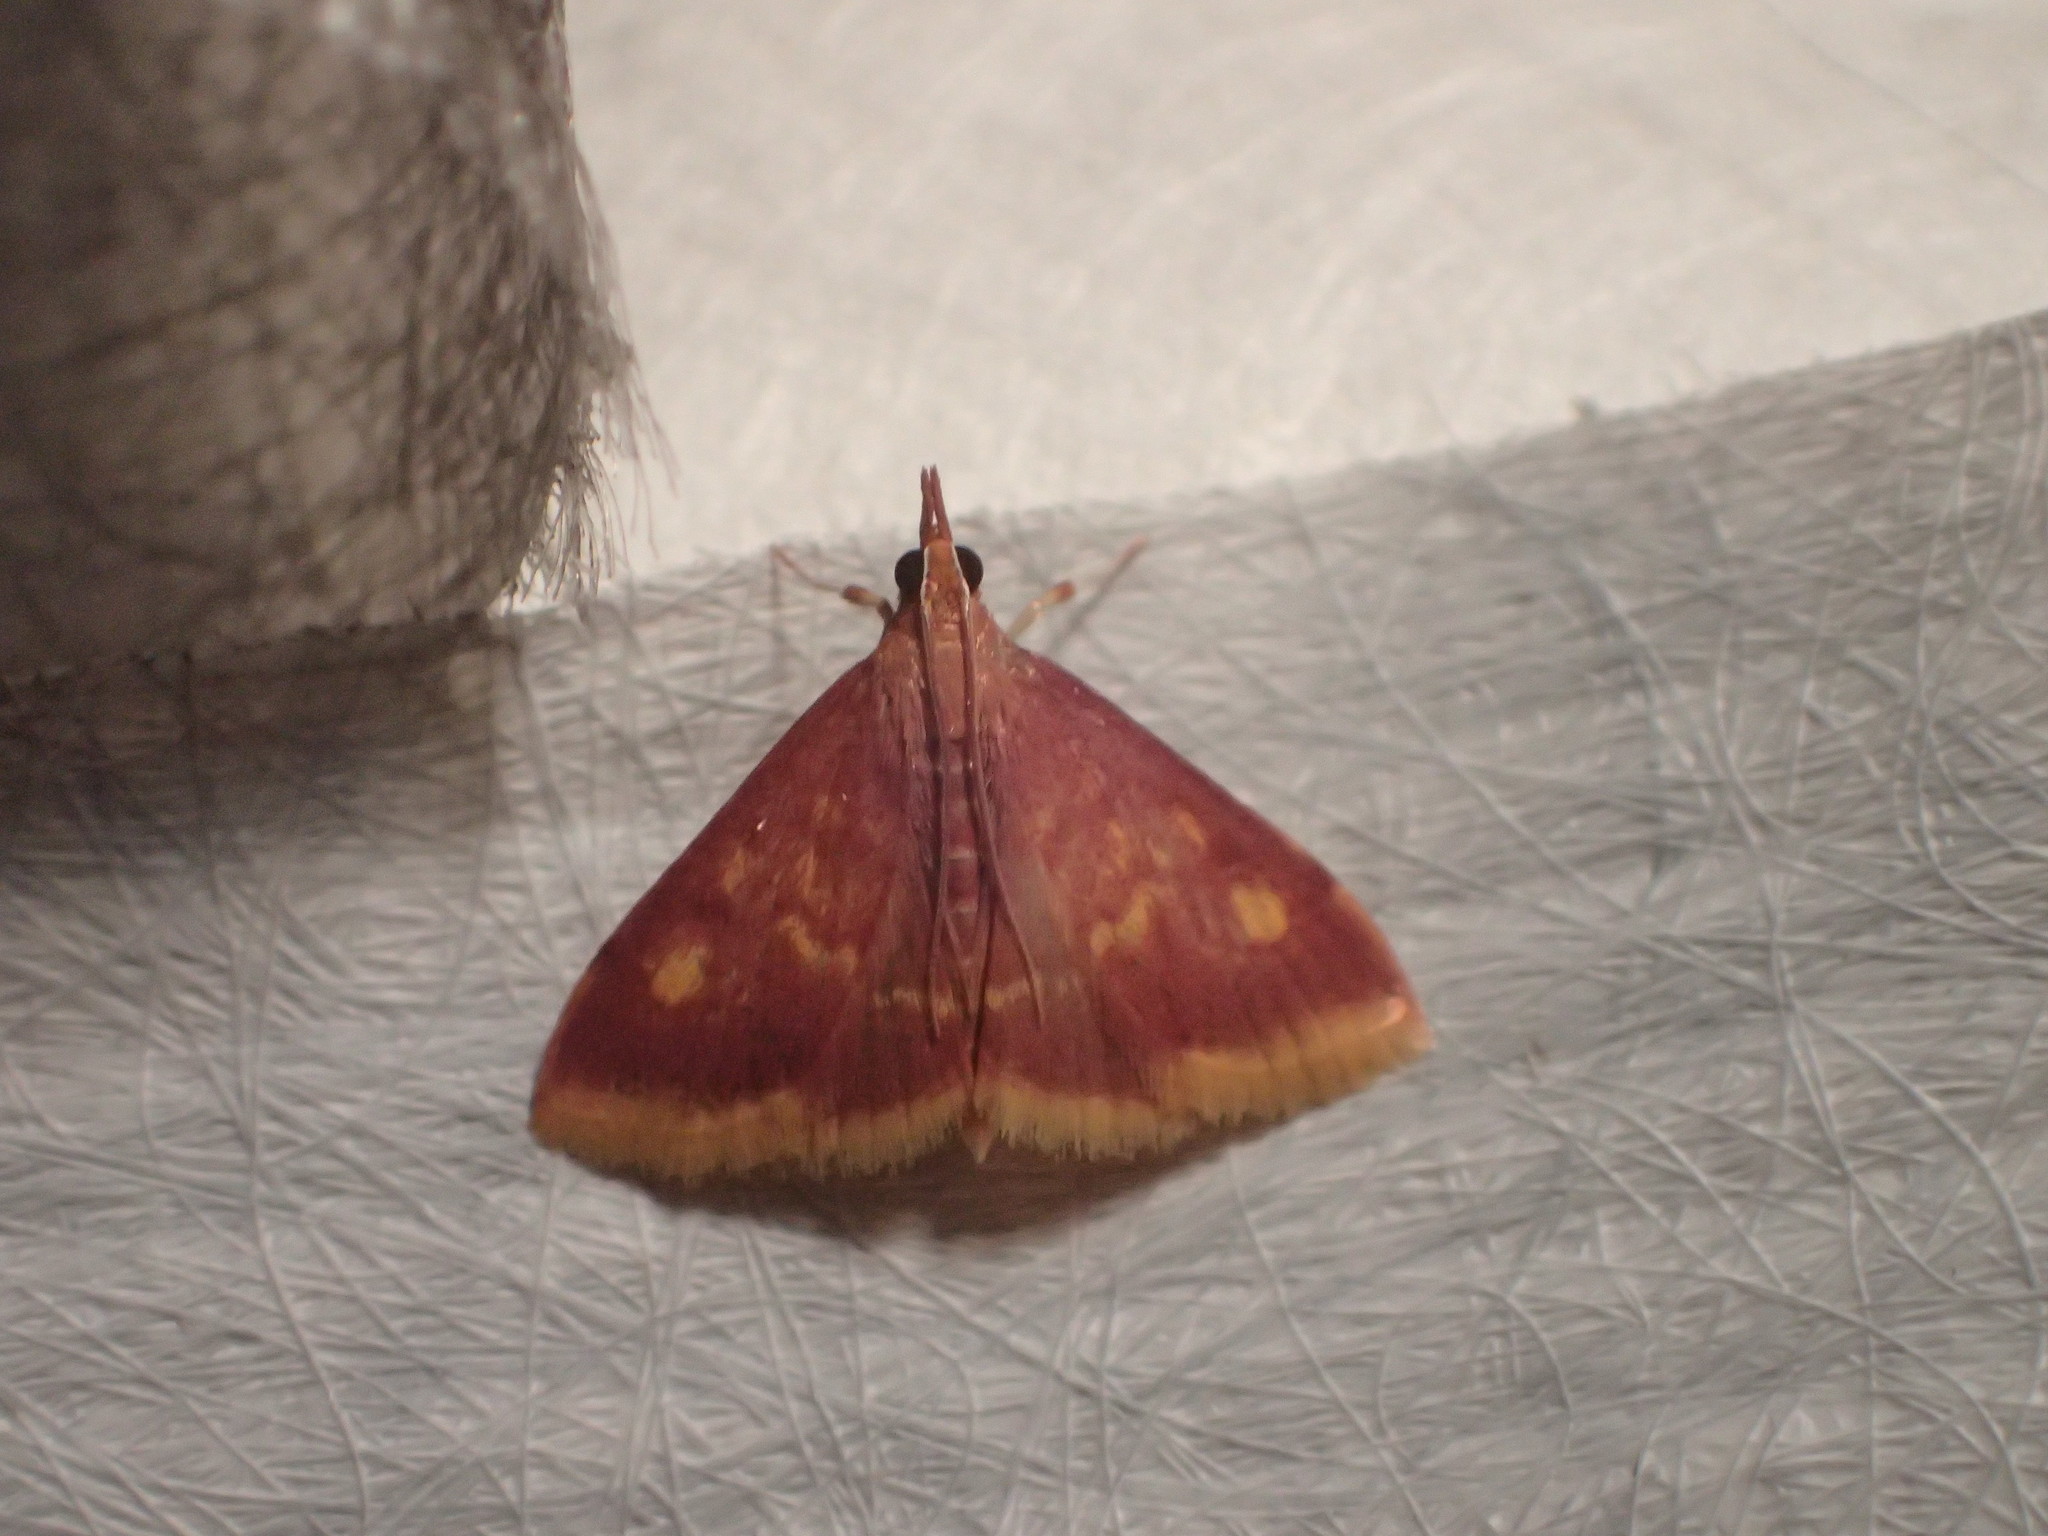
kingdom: Animalia
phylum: Arthropoda
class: Insecta
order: Lepidoptera
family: Crambidae
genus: Pyrausta
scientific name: Pyrausta acrionalis
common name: Mint-loving pyrausta moth
